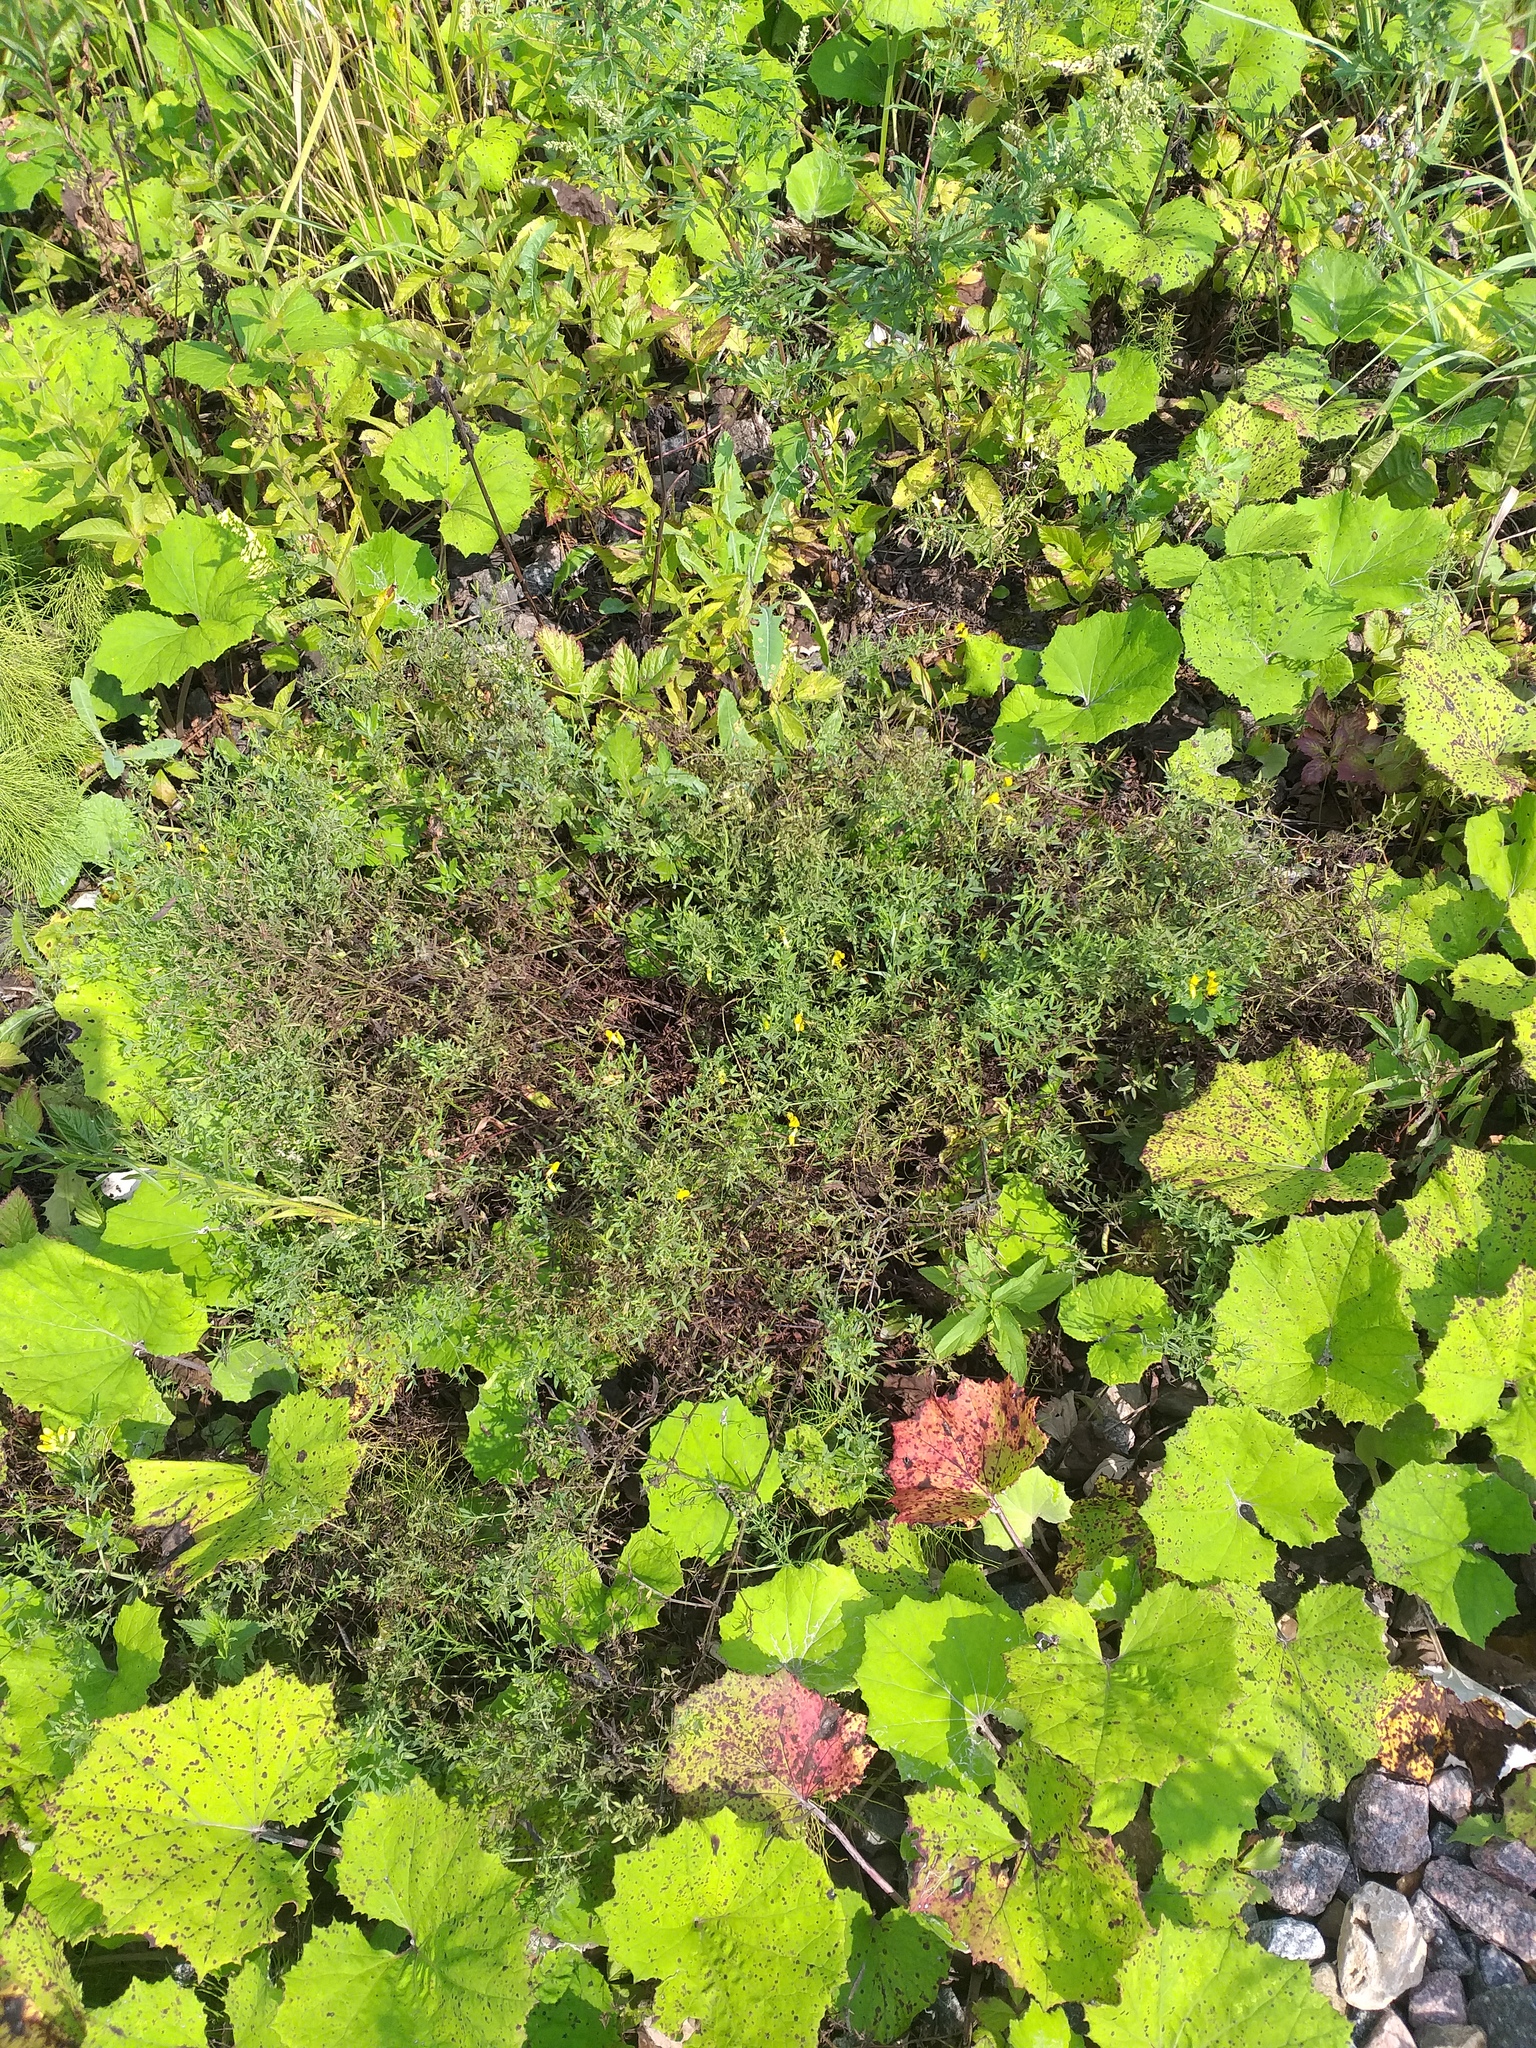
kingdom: Plantae
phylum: Tracheophyta
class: Magnoliopsida
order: Fabales
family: Fabaceae
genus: Lathyrus
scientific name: Lathyrus pratensis
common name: Meadow vetchling
